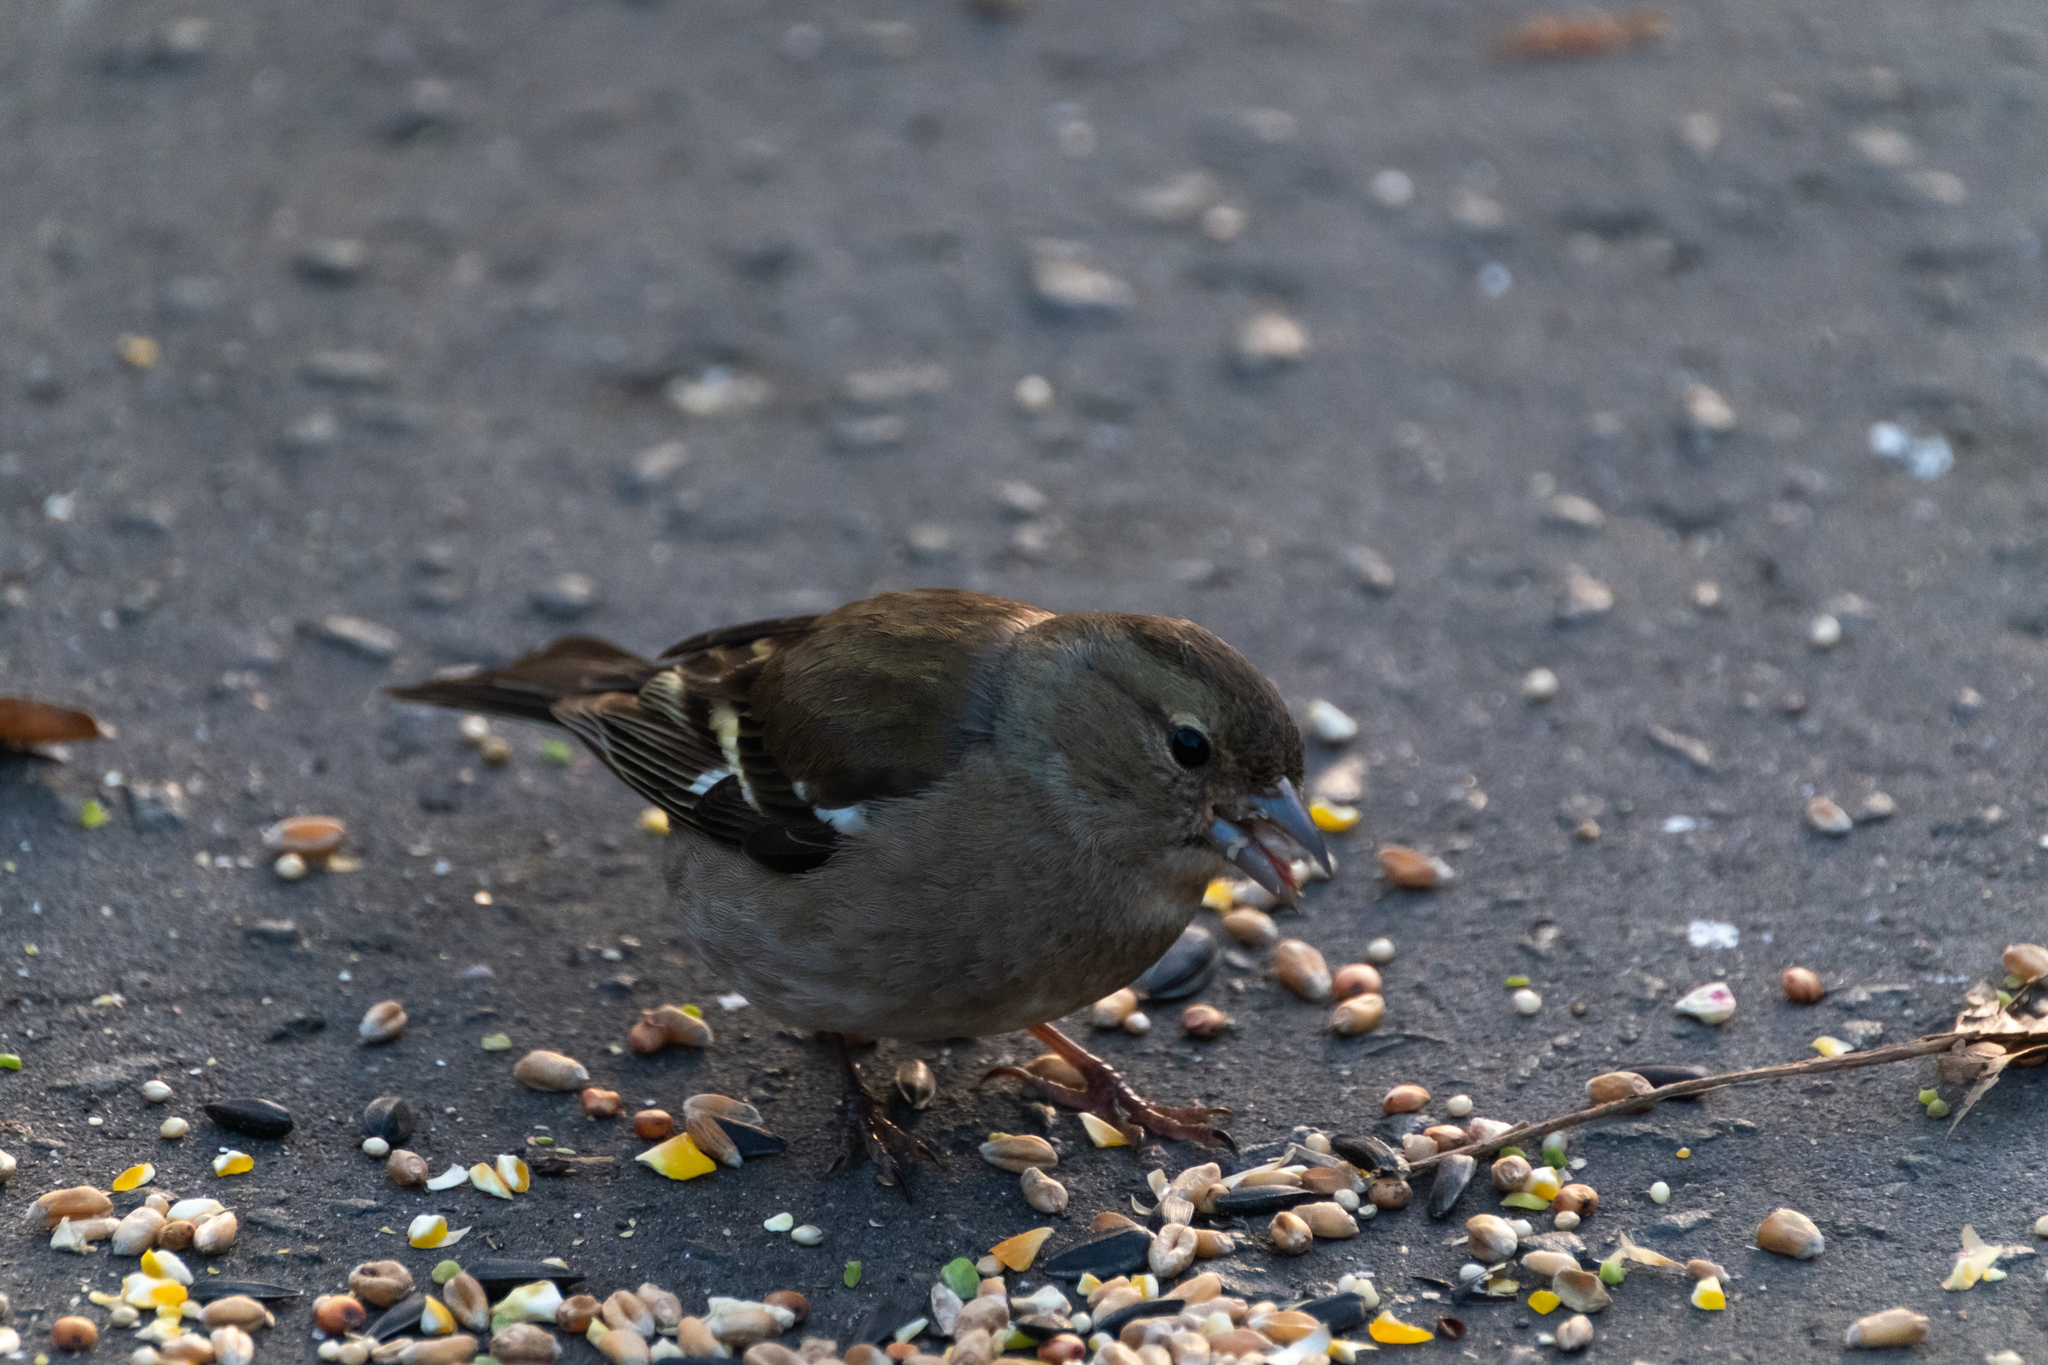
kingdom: Animalia
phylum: Chordata
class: Aves
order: Passeriformes
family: Fringillidae
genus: Fringilla
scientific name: Fringilla coelebs
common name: Common chaffinch
